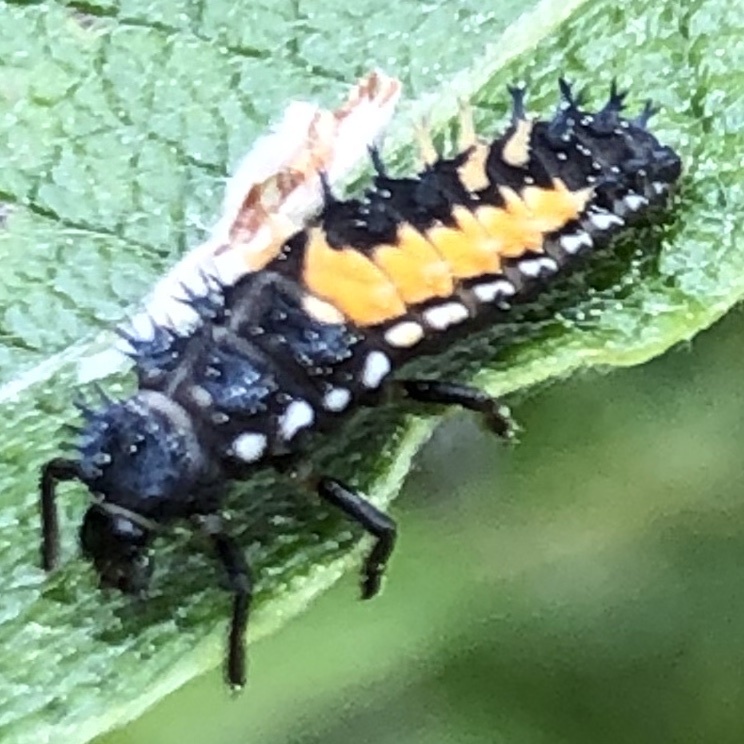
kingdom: Animalia
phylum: Arthropoda
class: Insecta
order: Coleoptera
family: Coccinellidae
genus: Harmonia
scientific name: Harmonia axyridis
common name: Harlequin ladybird
